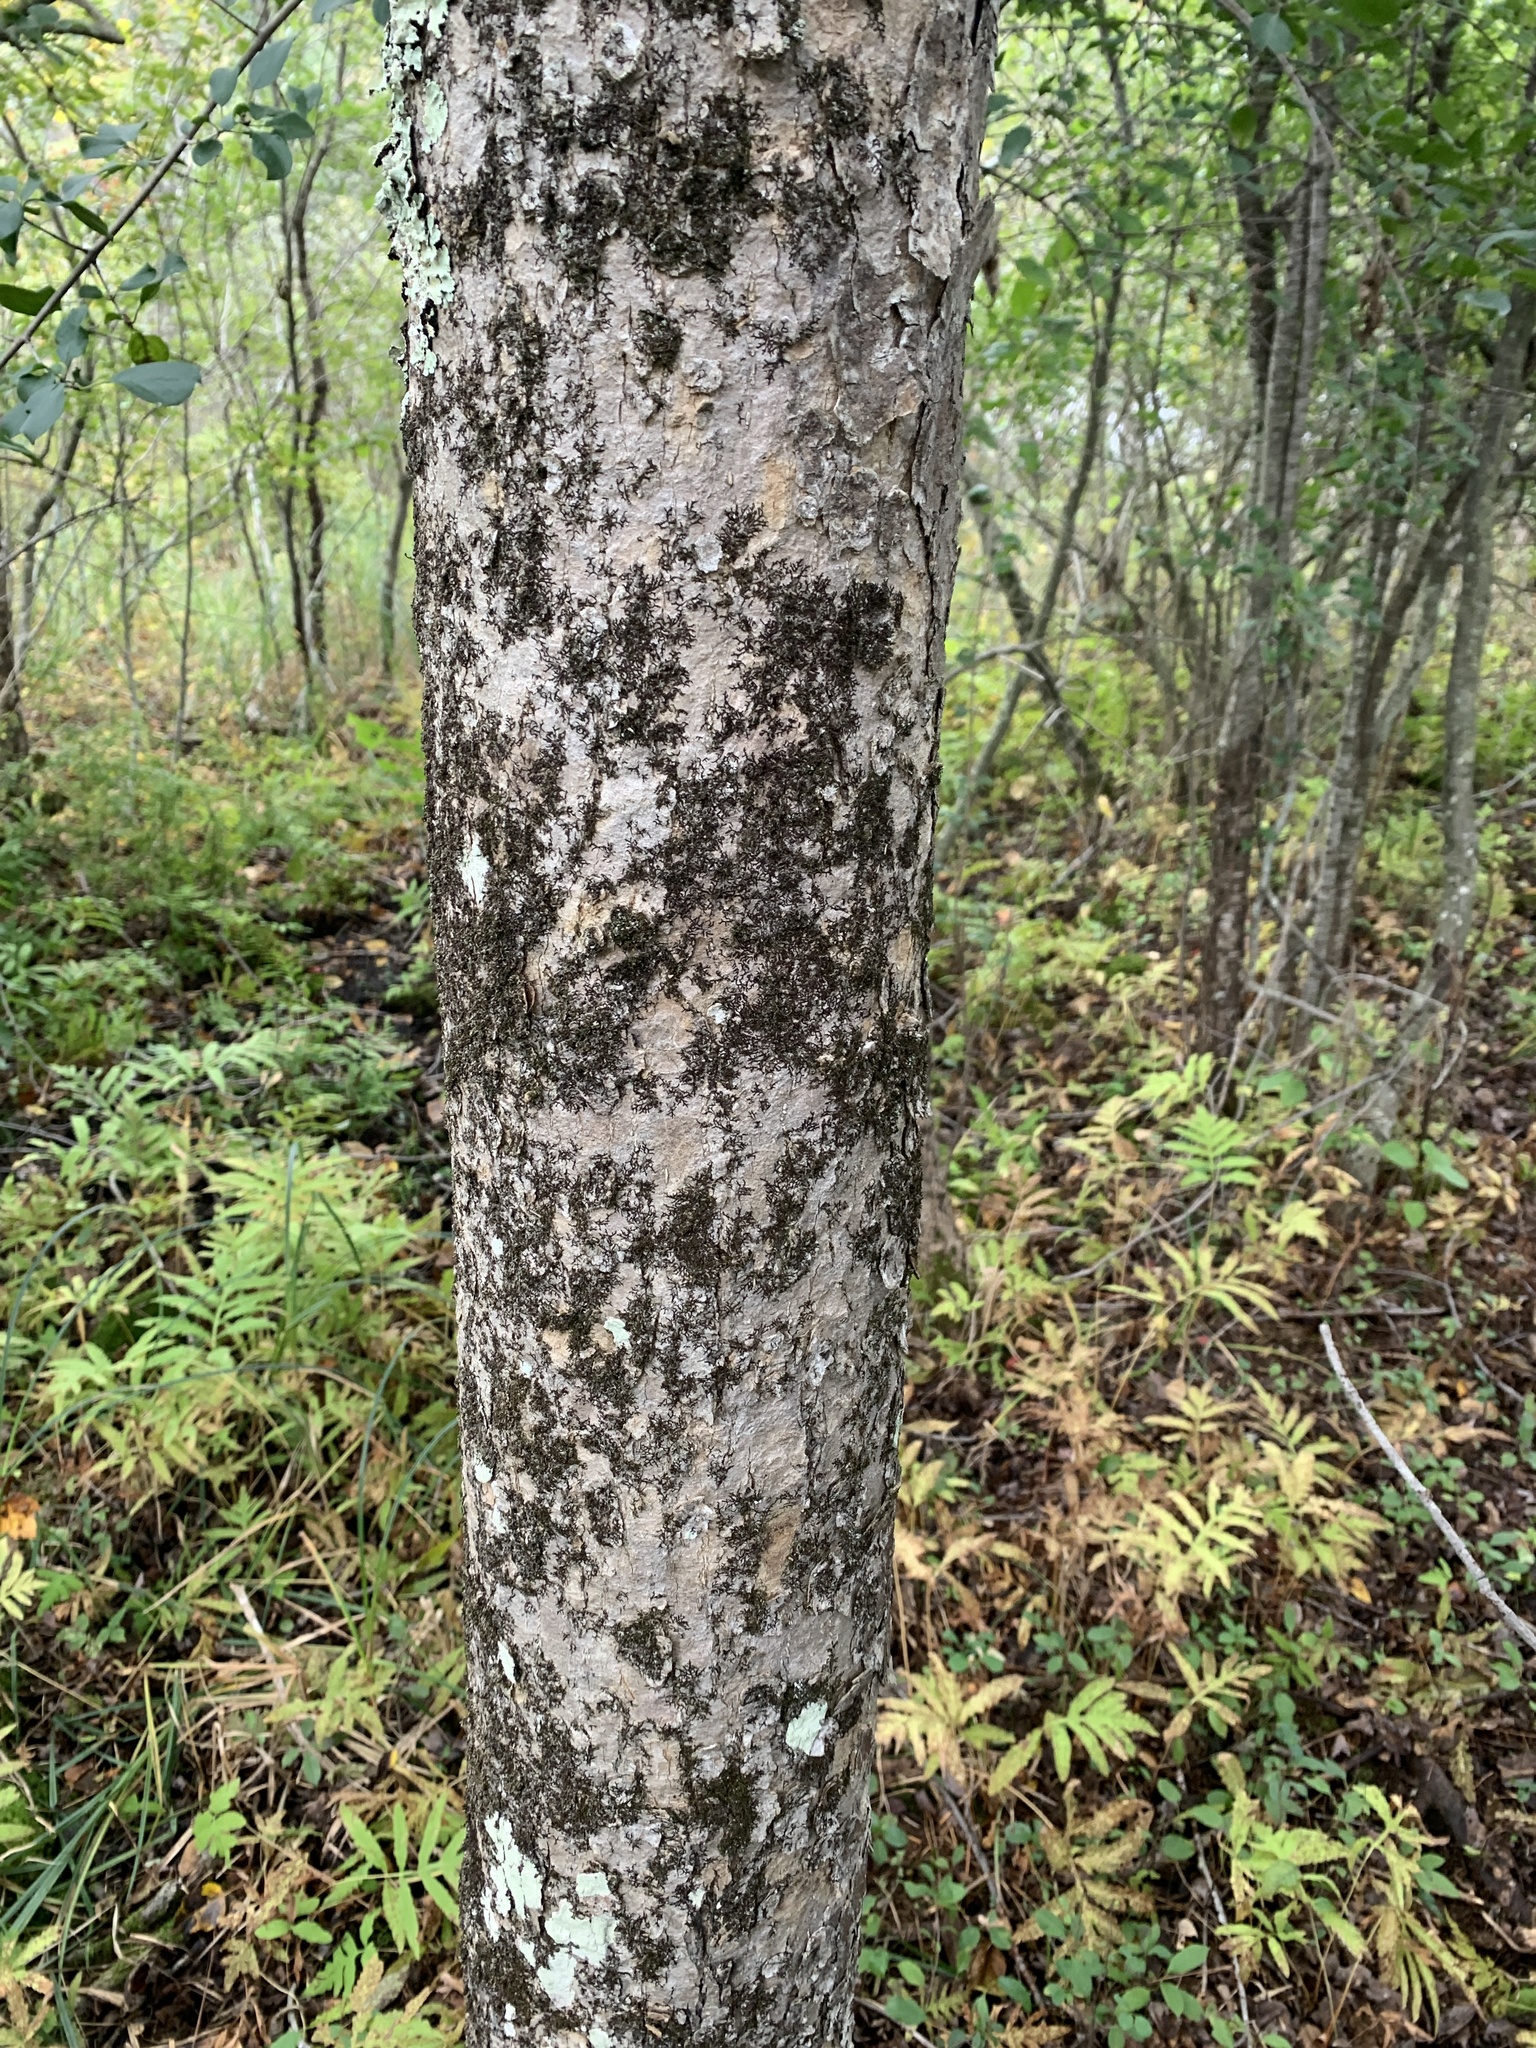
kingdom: Plantae
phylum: Tracheophyta
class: Magnoliopsida
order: Lamiales
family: Oleaceae
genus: Fraxinus
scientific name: Fraxinus nigra
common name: Black ash
